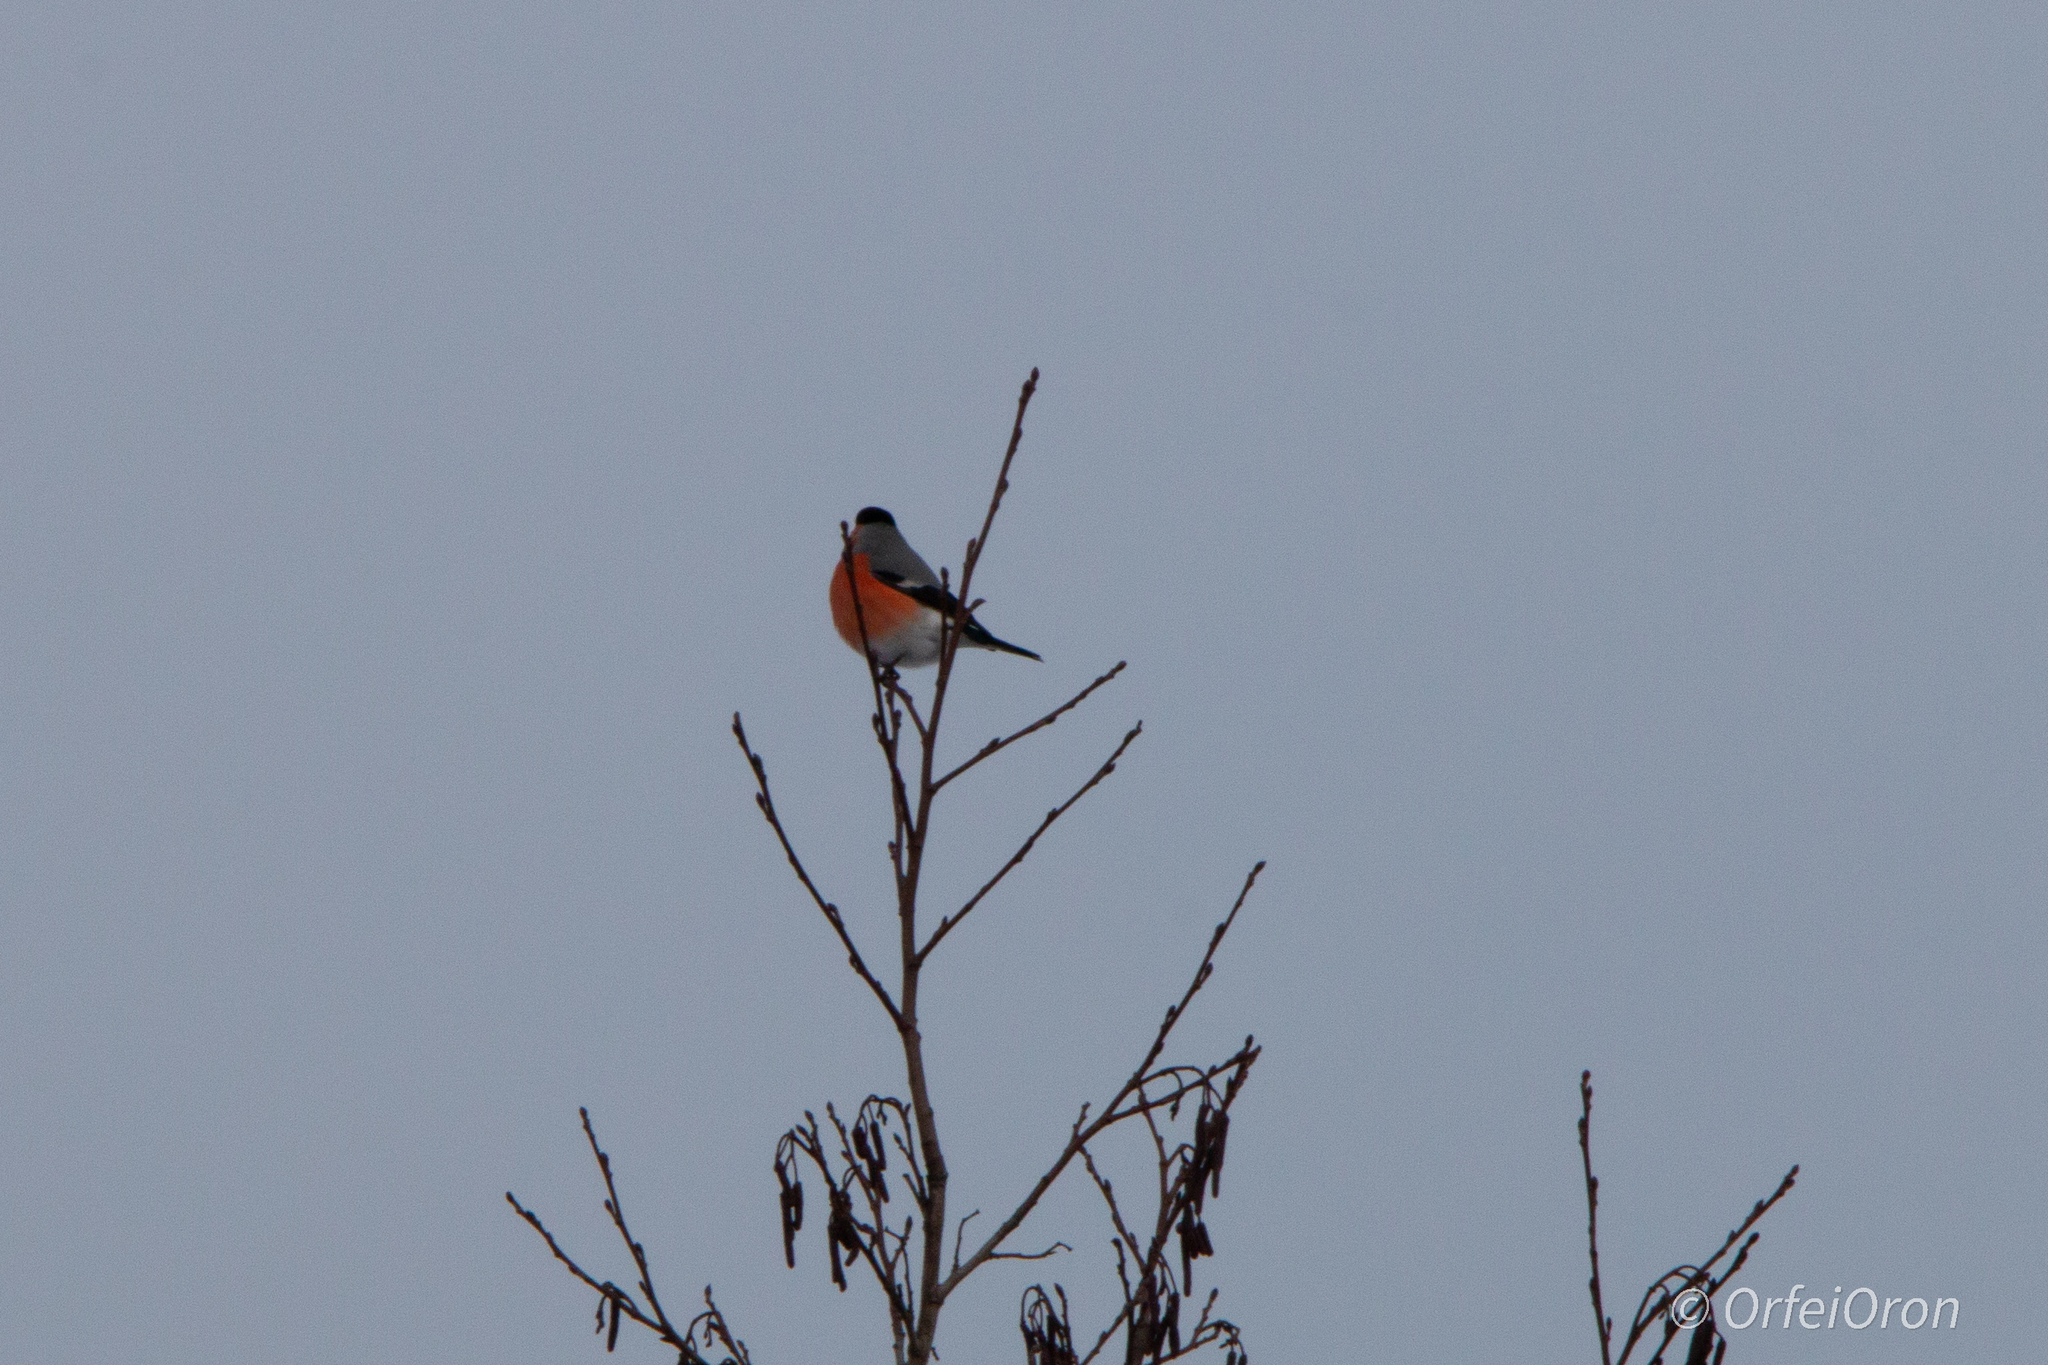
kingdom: Animalia
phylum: Chordata
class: Aves
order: Passeriformes
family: Fringillidae
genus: Pyrrhula
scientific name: Pyrrhula pyrrhula
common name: Eurasian bullfinch
